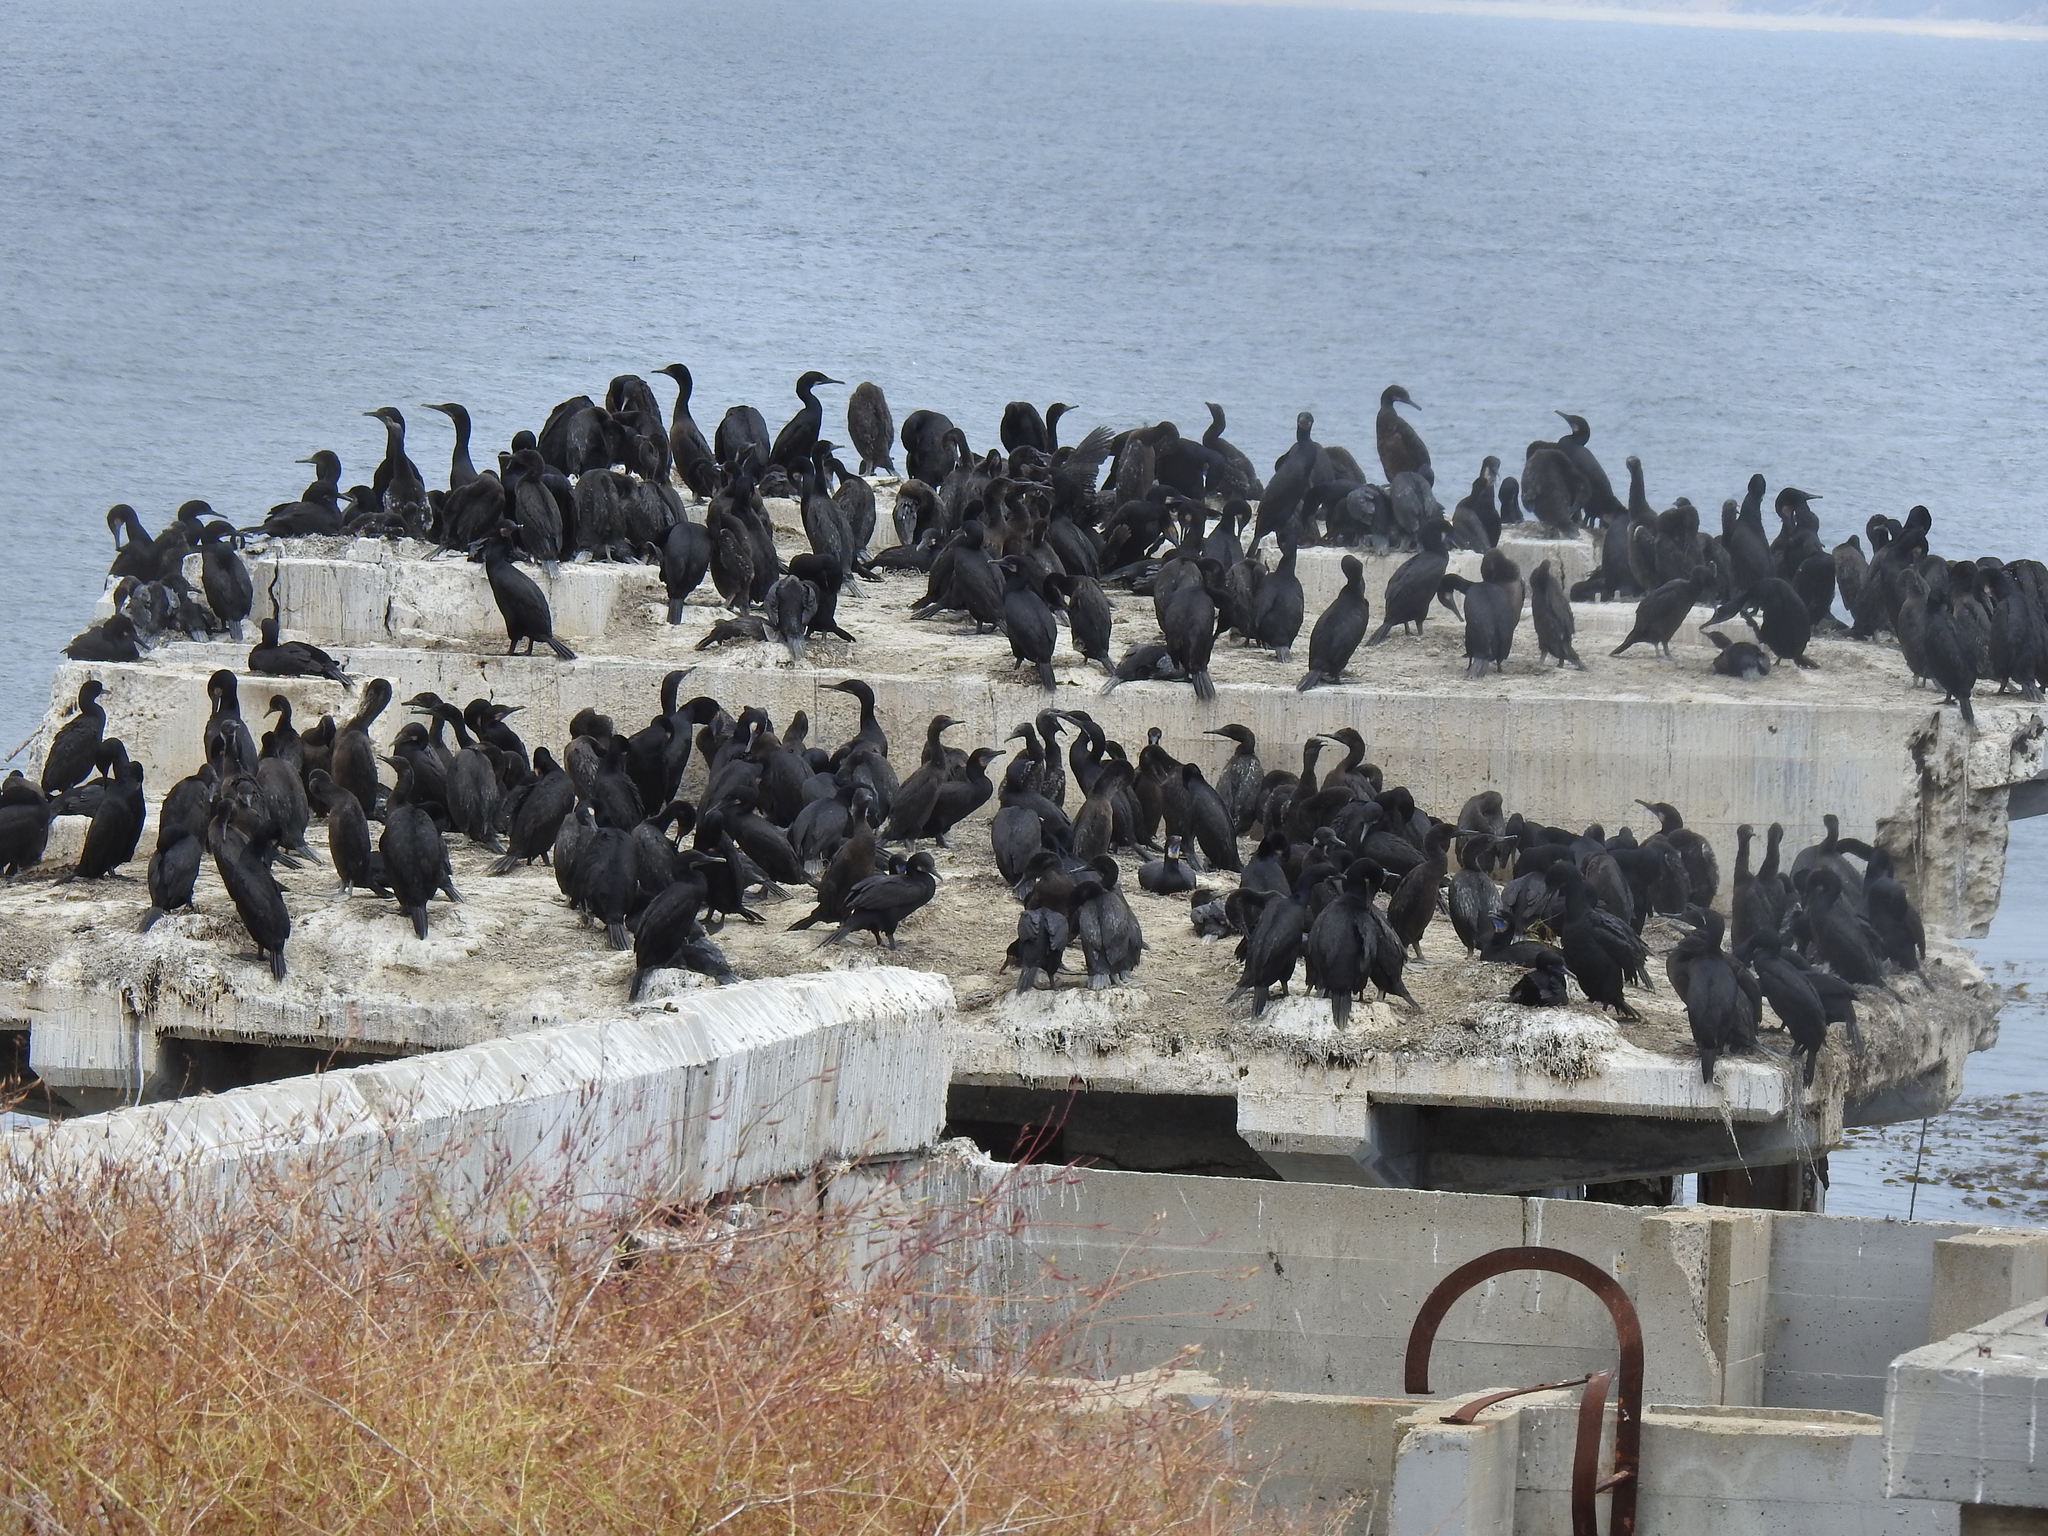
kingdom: Animalia
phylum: Chordata
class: Aves
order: Suliformes
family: Phalacrocoracidae
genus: Urile
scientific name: Urile penicillatus
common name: Brandt's cormorant
